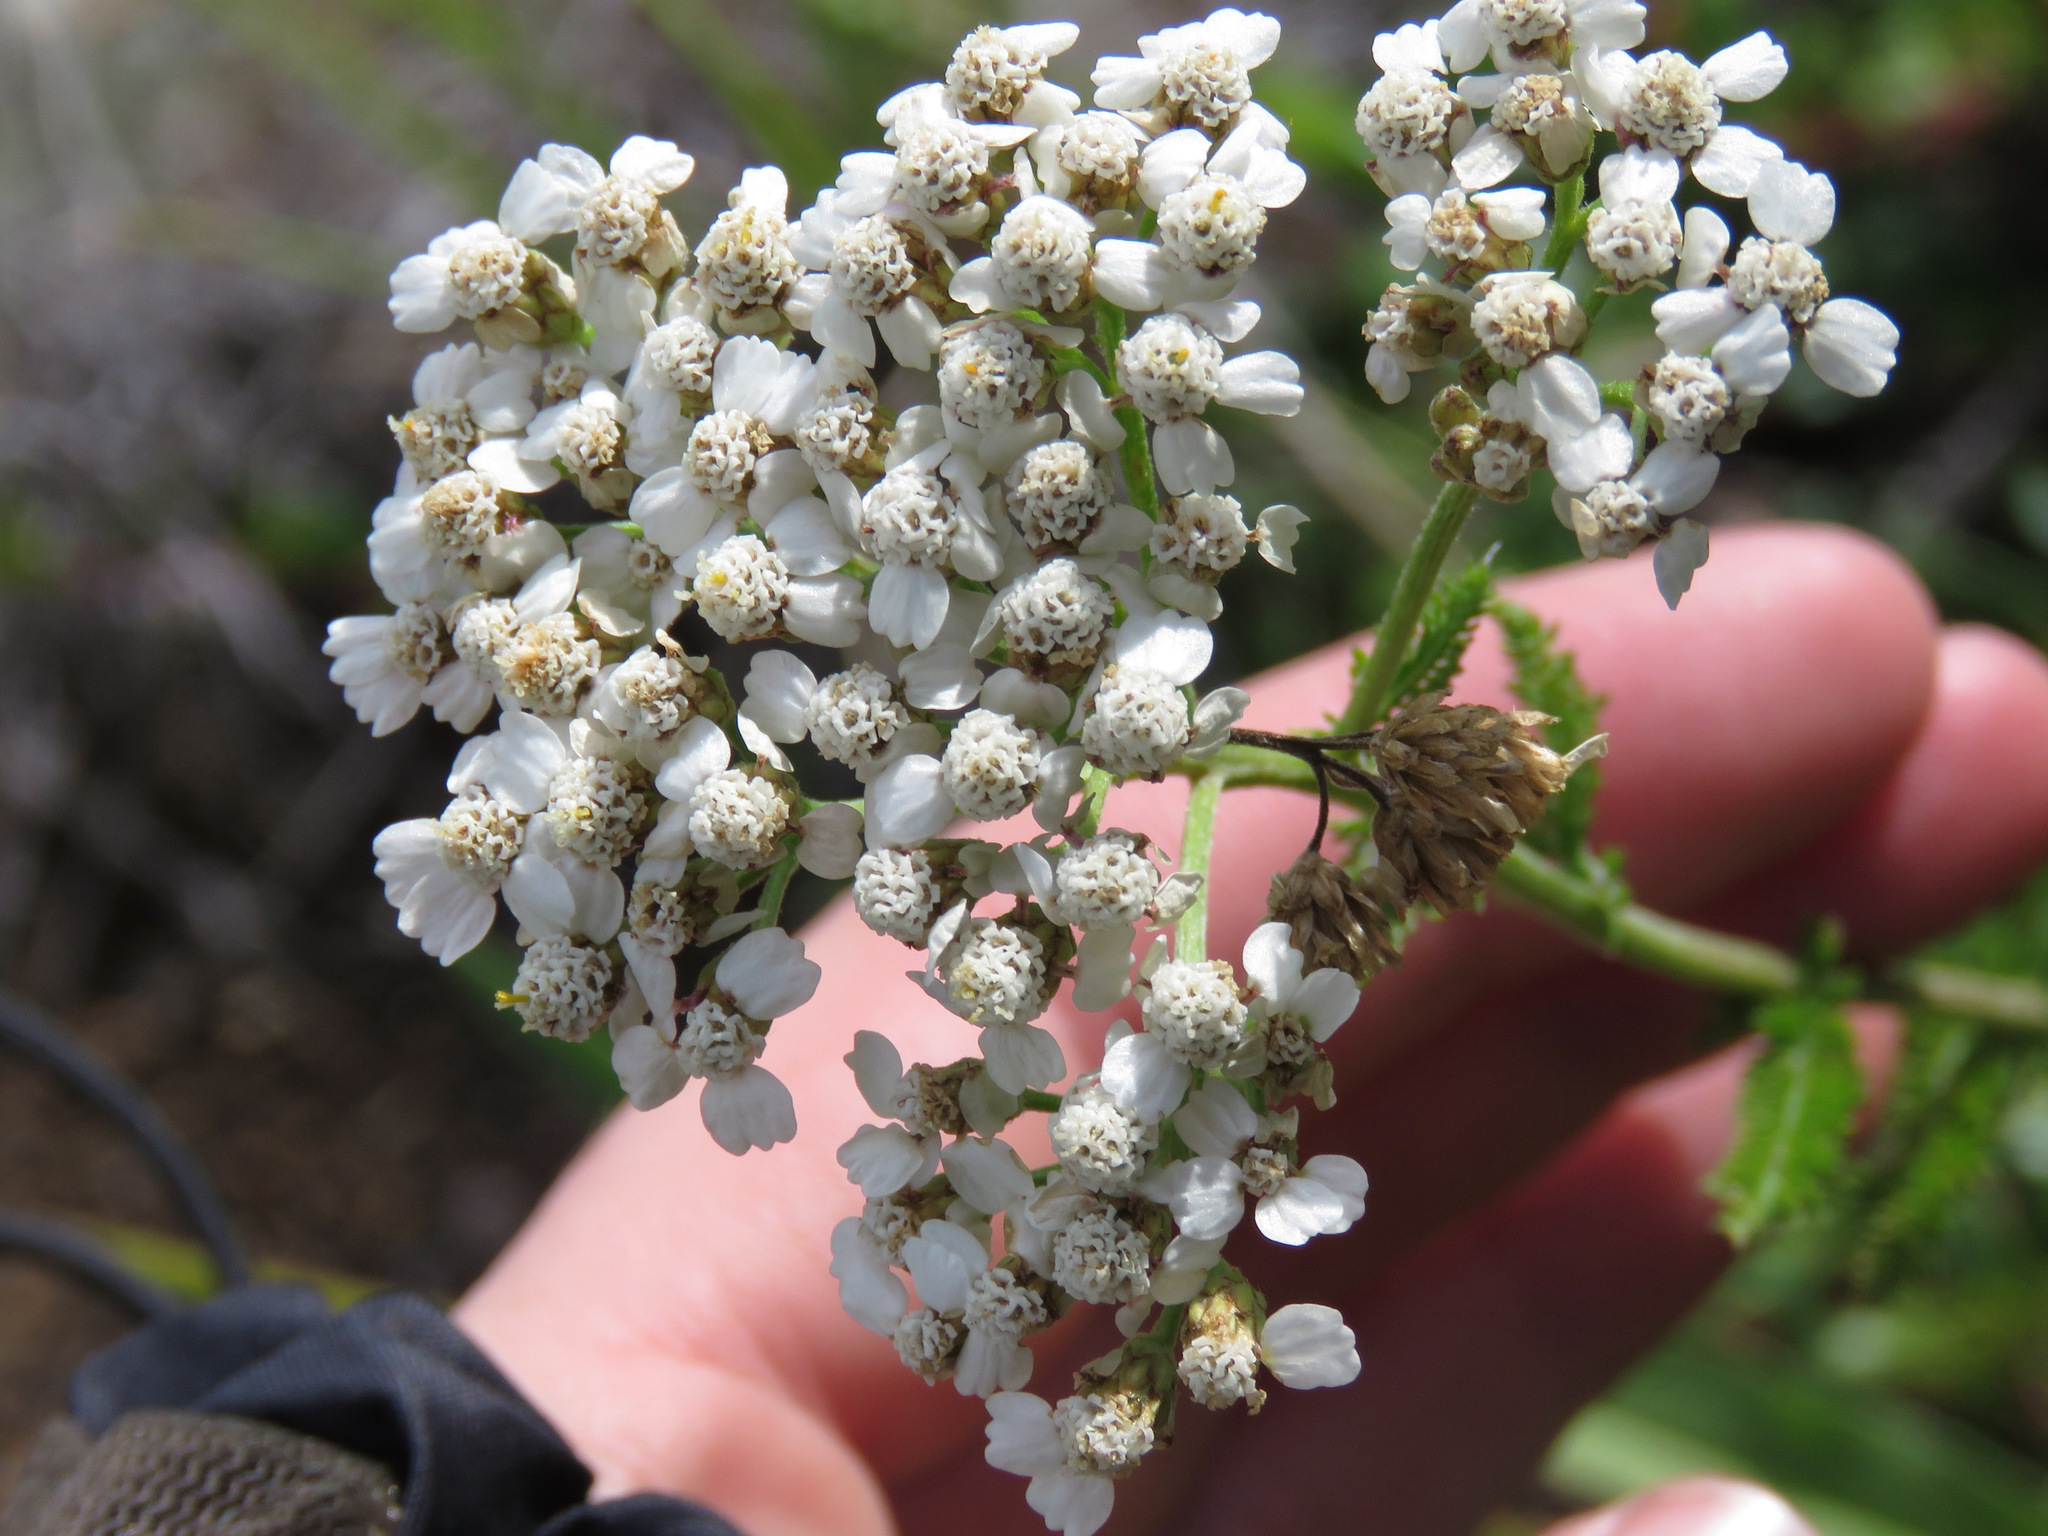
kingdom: Plantae
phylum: Tracheophyta
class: Magnoliopsida
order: Asterales
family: Asteraceae
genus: Achillea
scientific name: Achillea millefolium
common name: Yarrow
